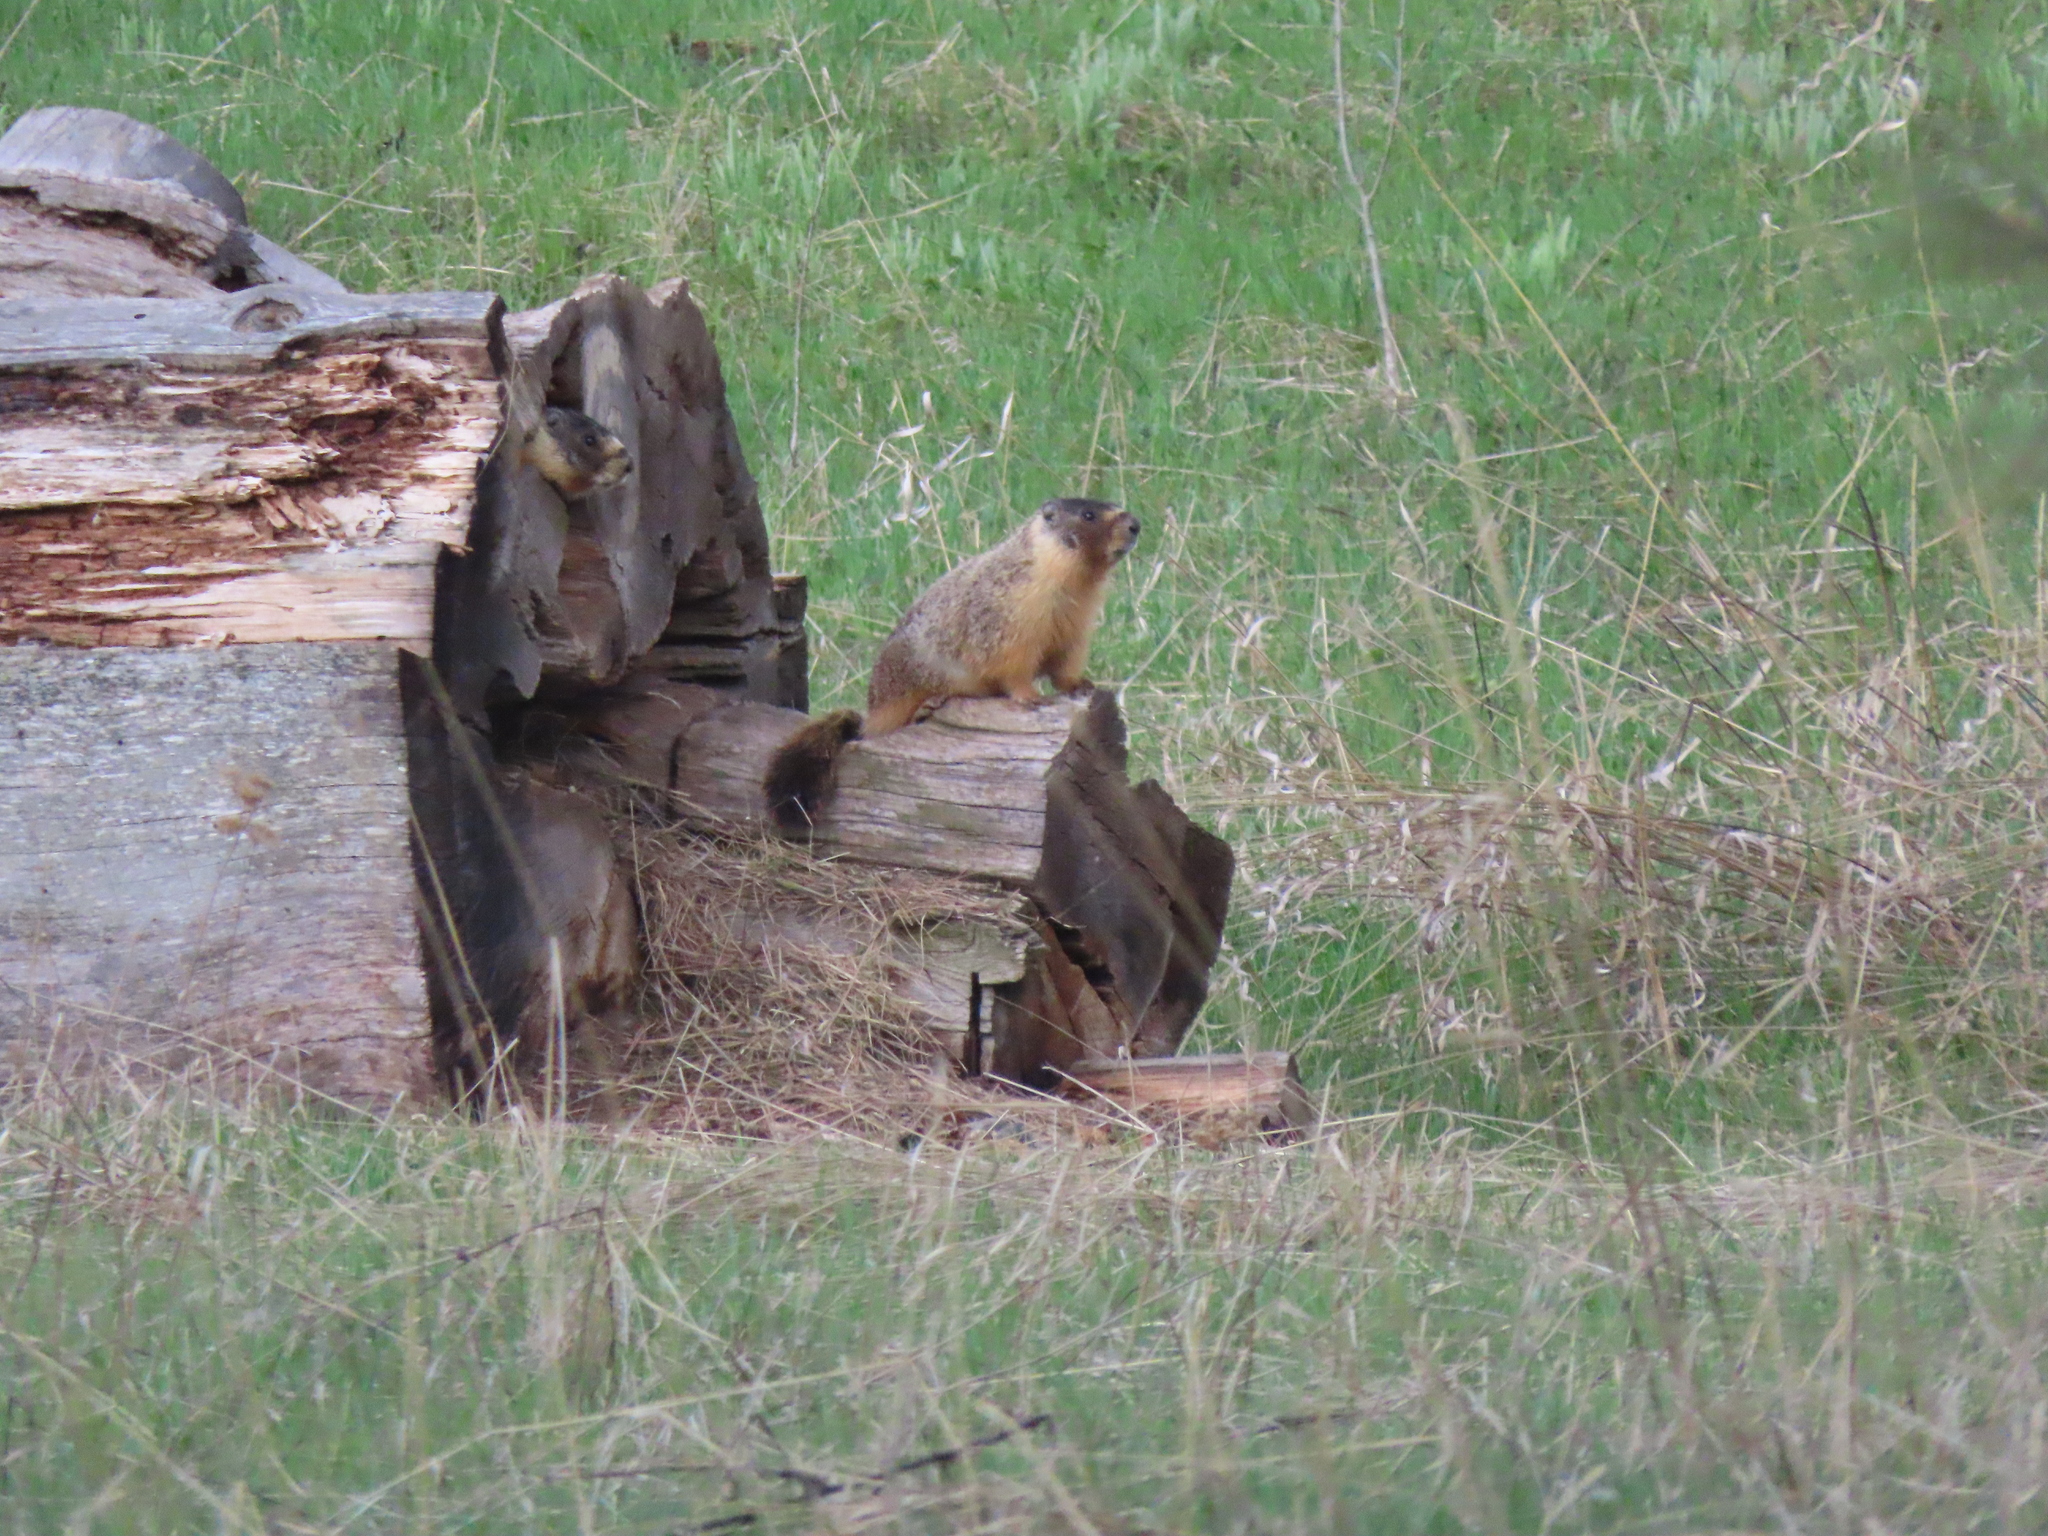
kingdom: Animalia
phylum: Chordata
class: Mammalia
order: Rodentia
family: Sciuridae
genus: Marmota
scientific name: Marmota flaviventris
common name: Yellow-bellied marmot
